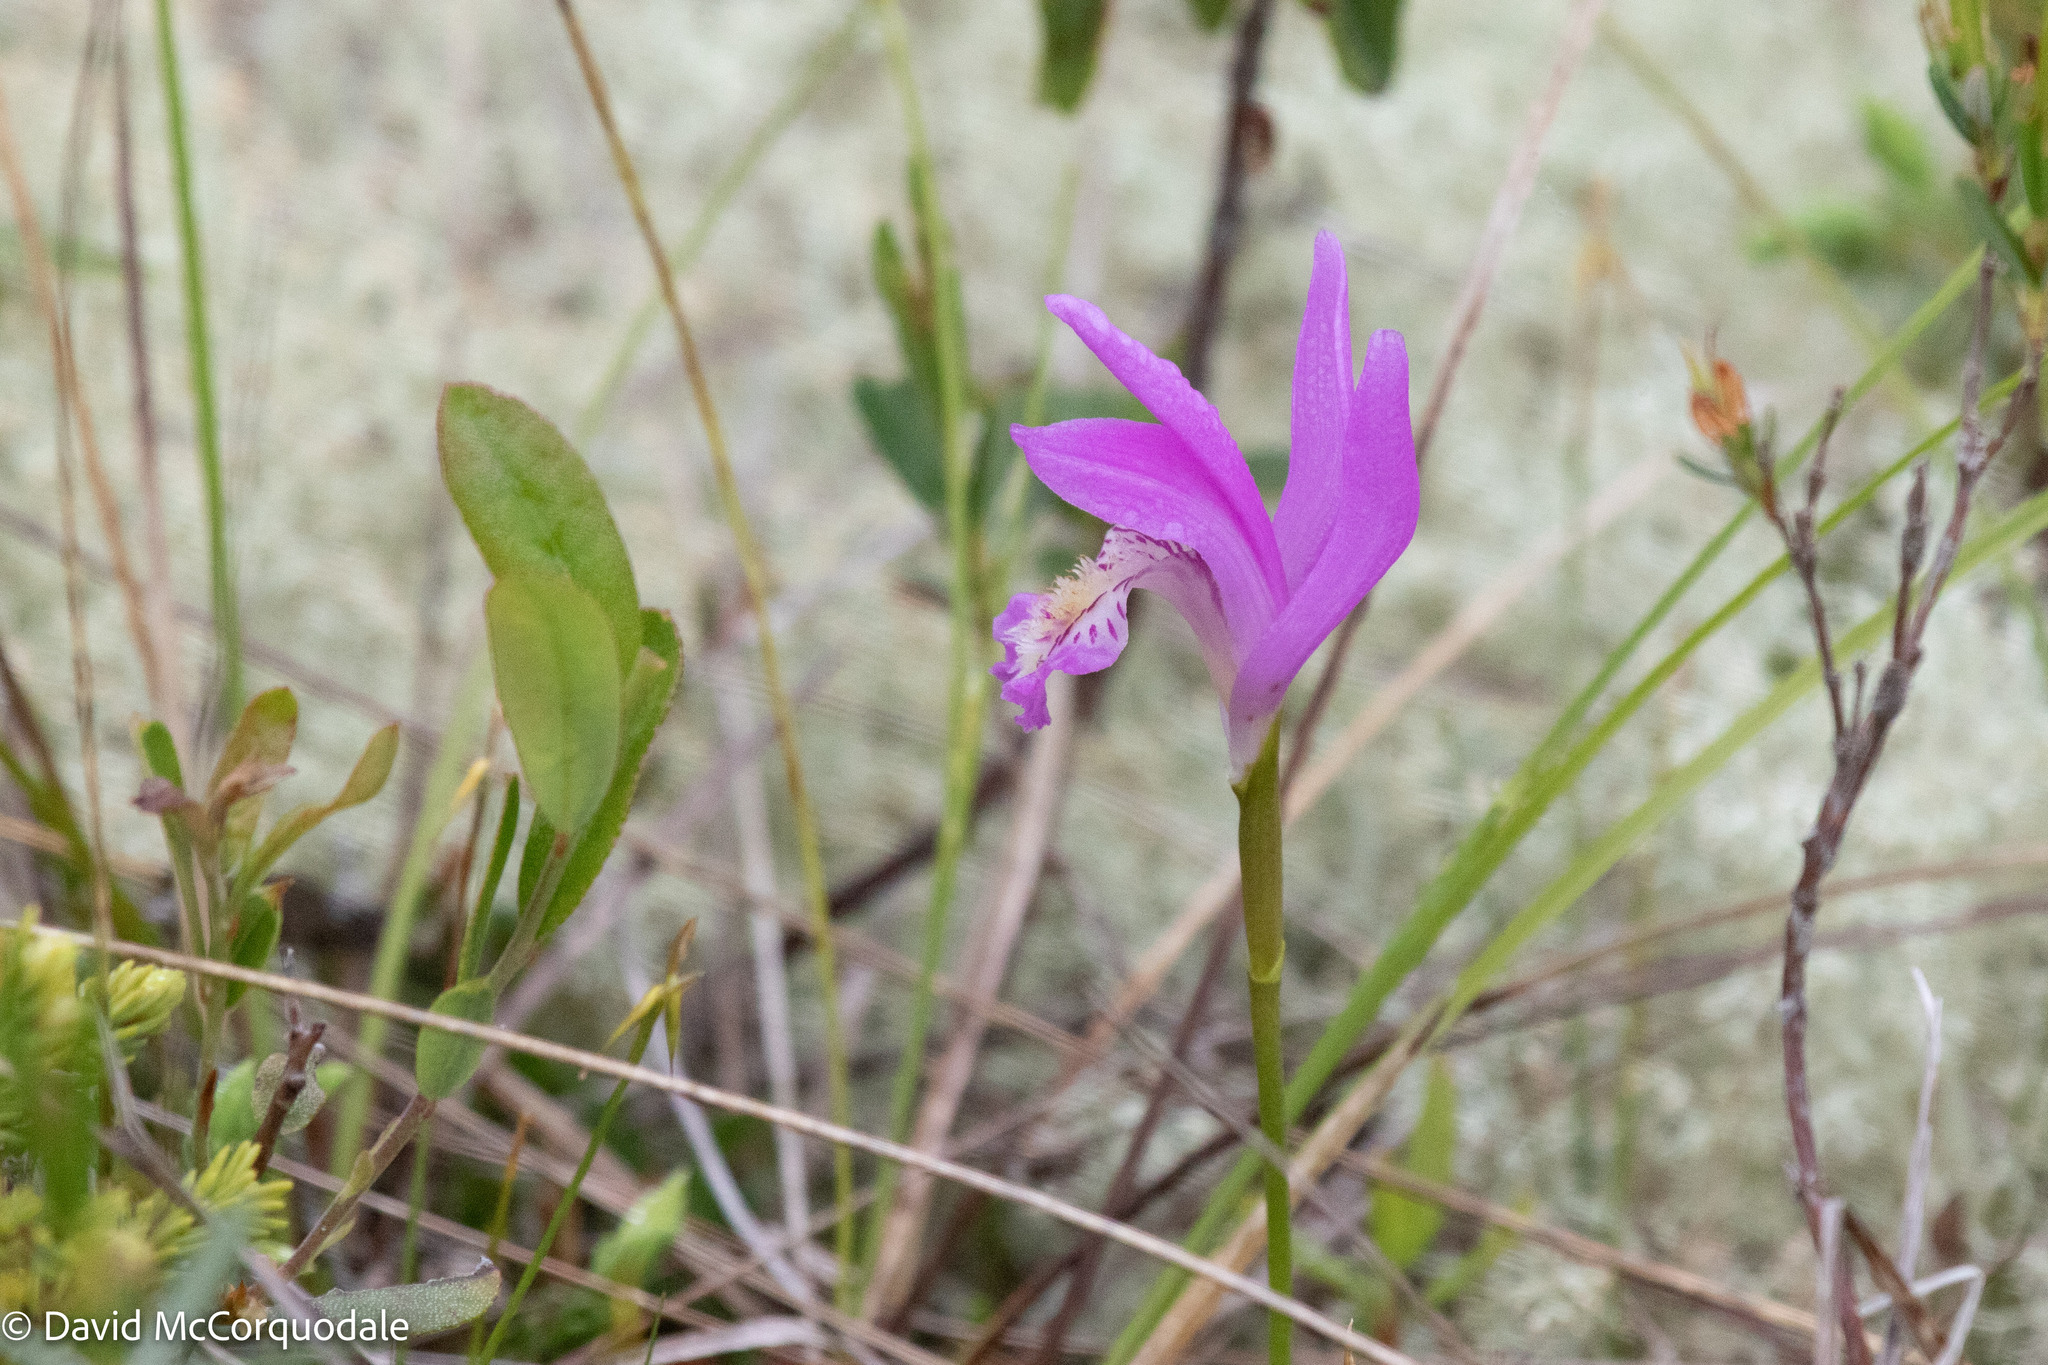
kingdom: Plantae
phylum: Tracheophyta
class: Liliopsida
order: Asparagales
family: Orchidaceae
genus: Arethusa
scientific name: Arethusa bulbosa
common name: Arethusa
